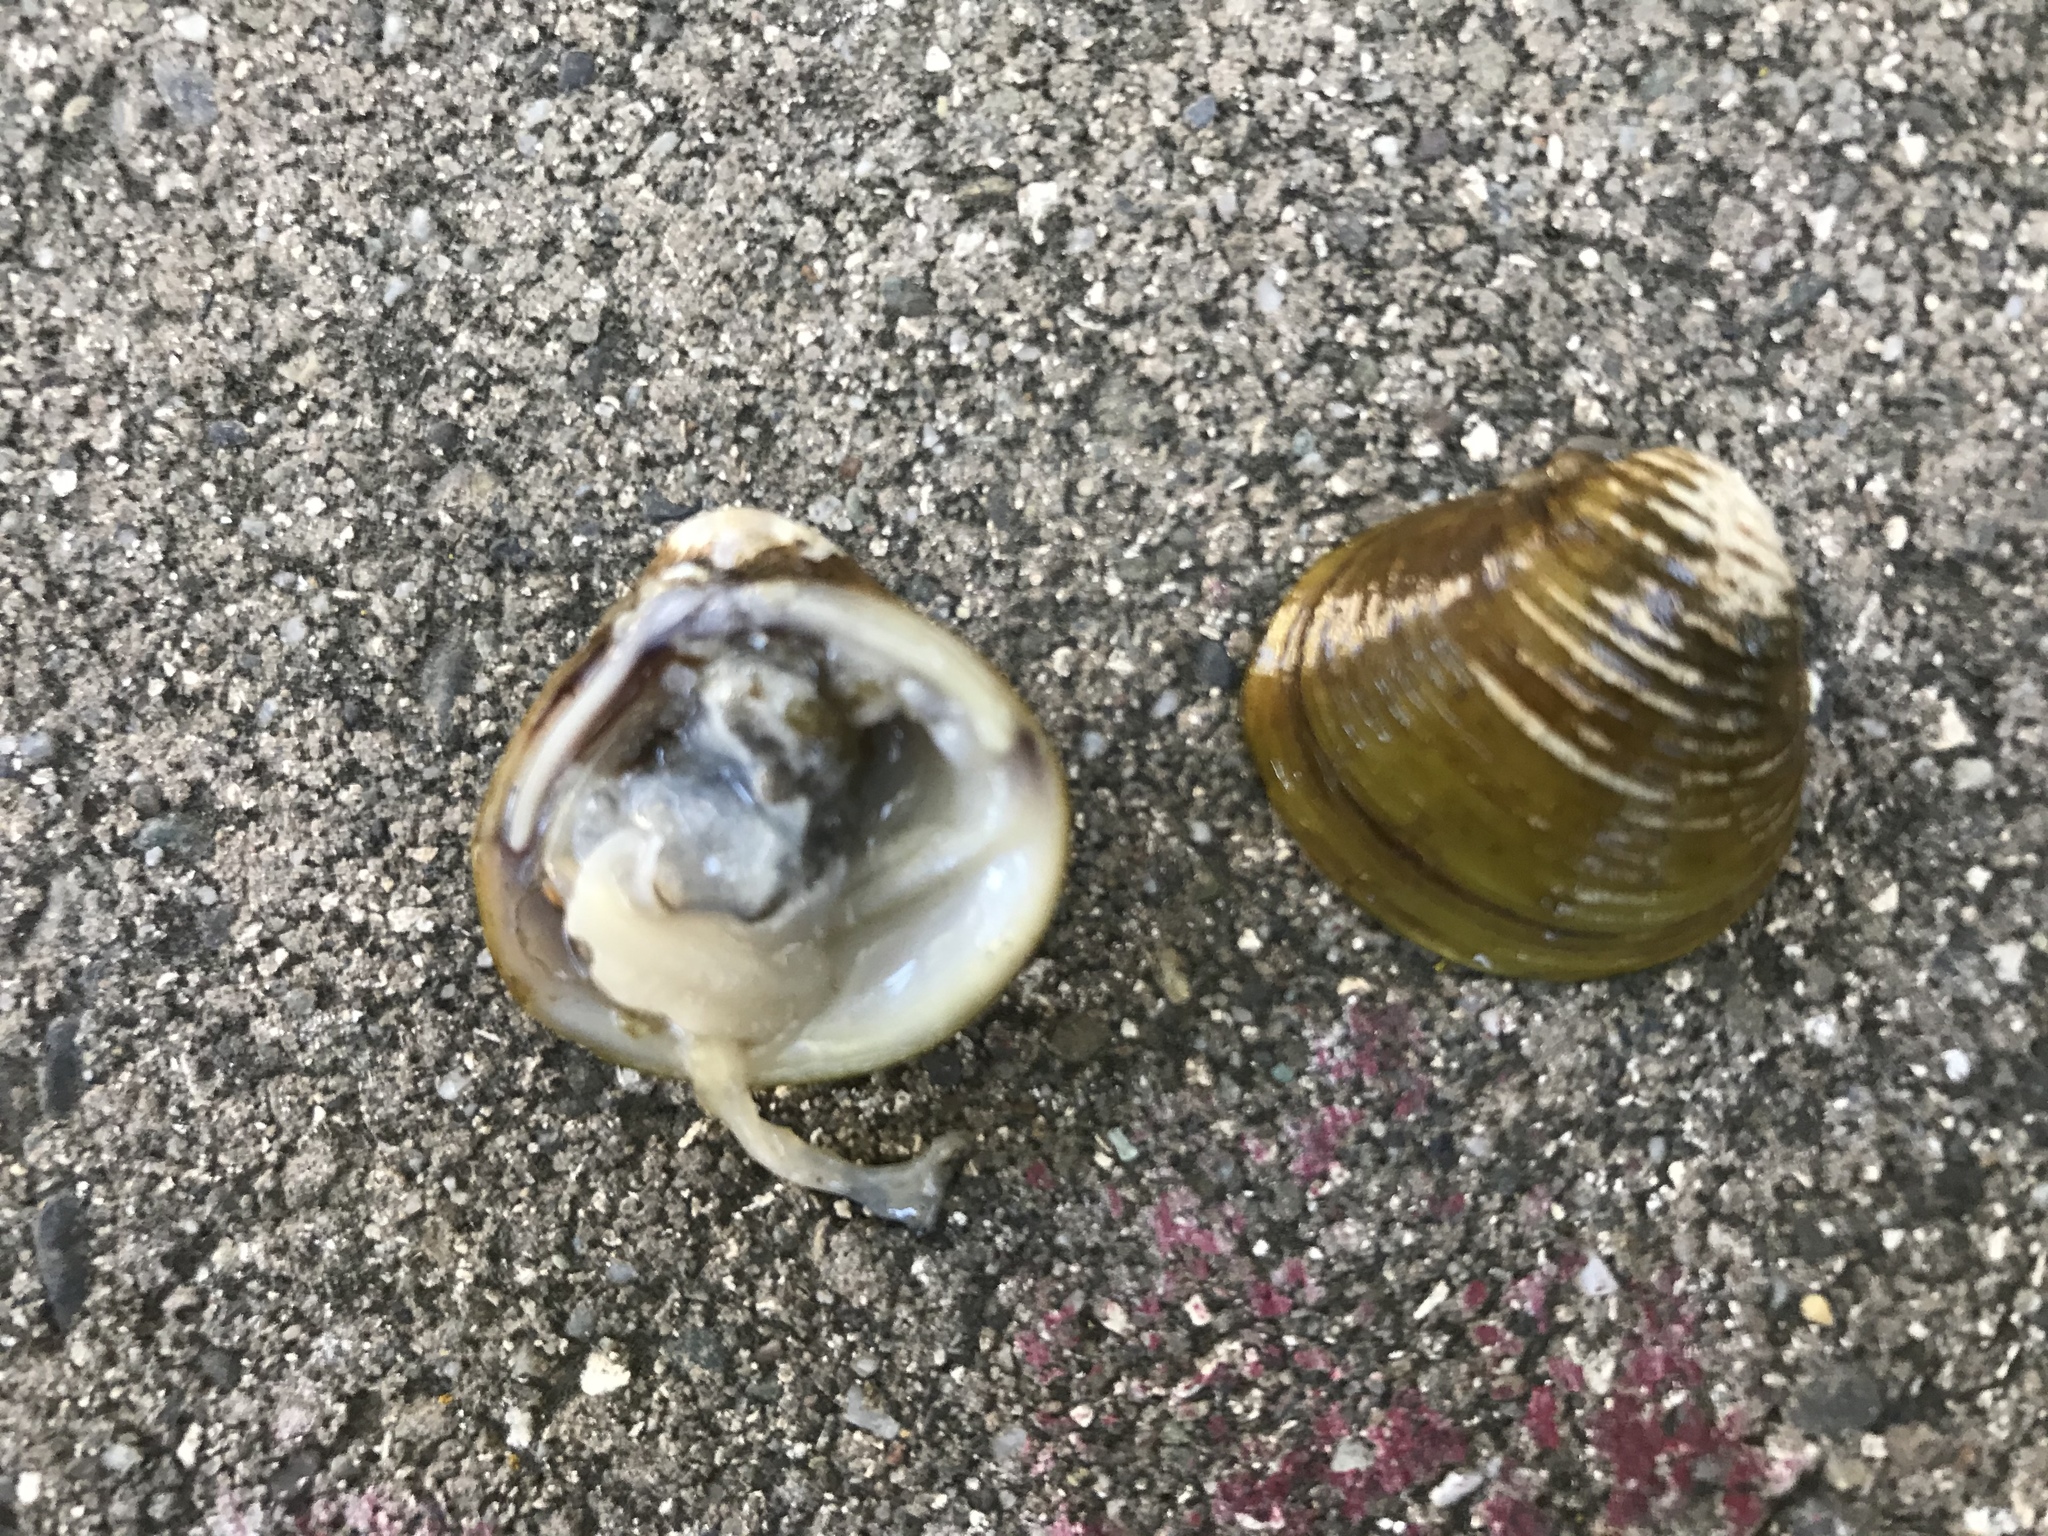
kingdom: Animalia
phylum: Mollusca
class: Bivalvia
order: Venerida
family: Cyrenidae
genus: Corbicula
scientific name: Corbicula fluminea
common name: Asian clam
